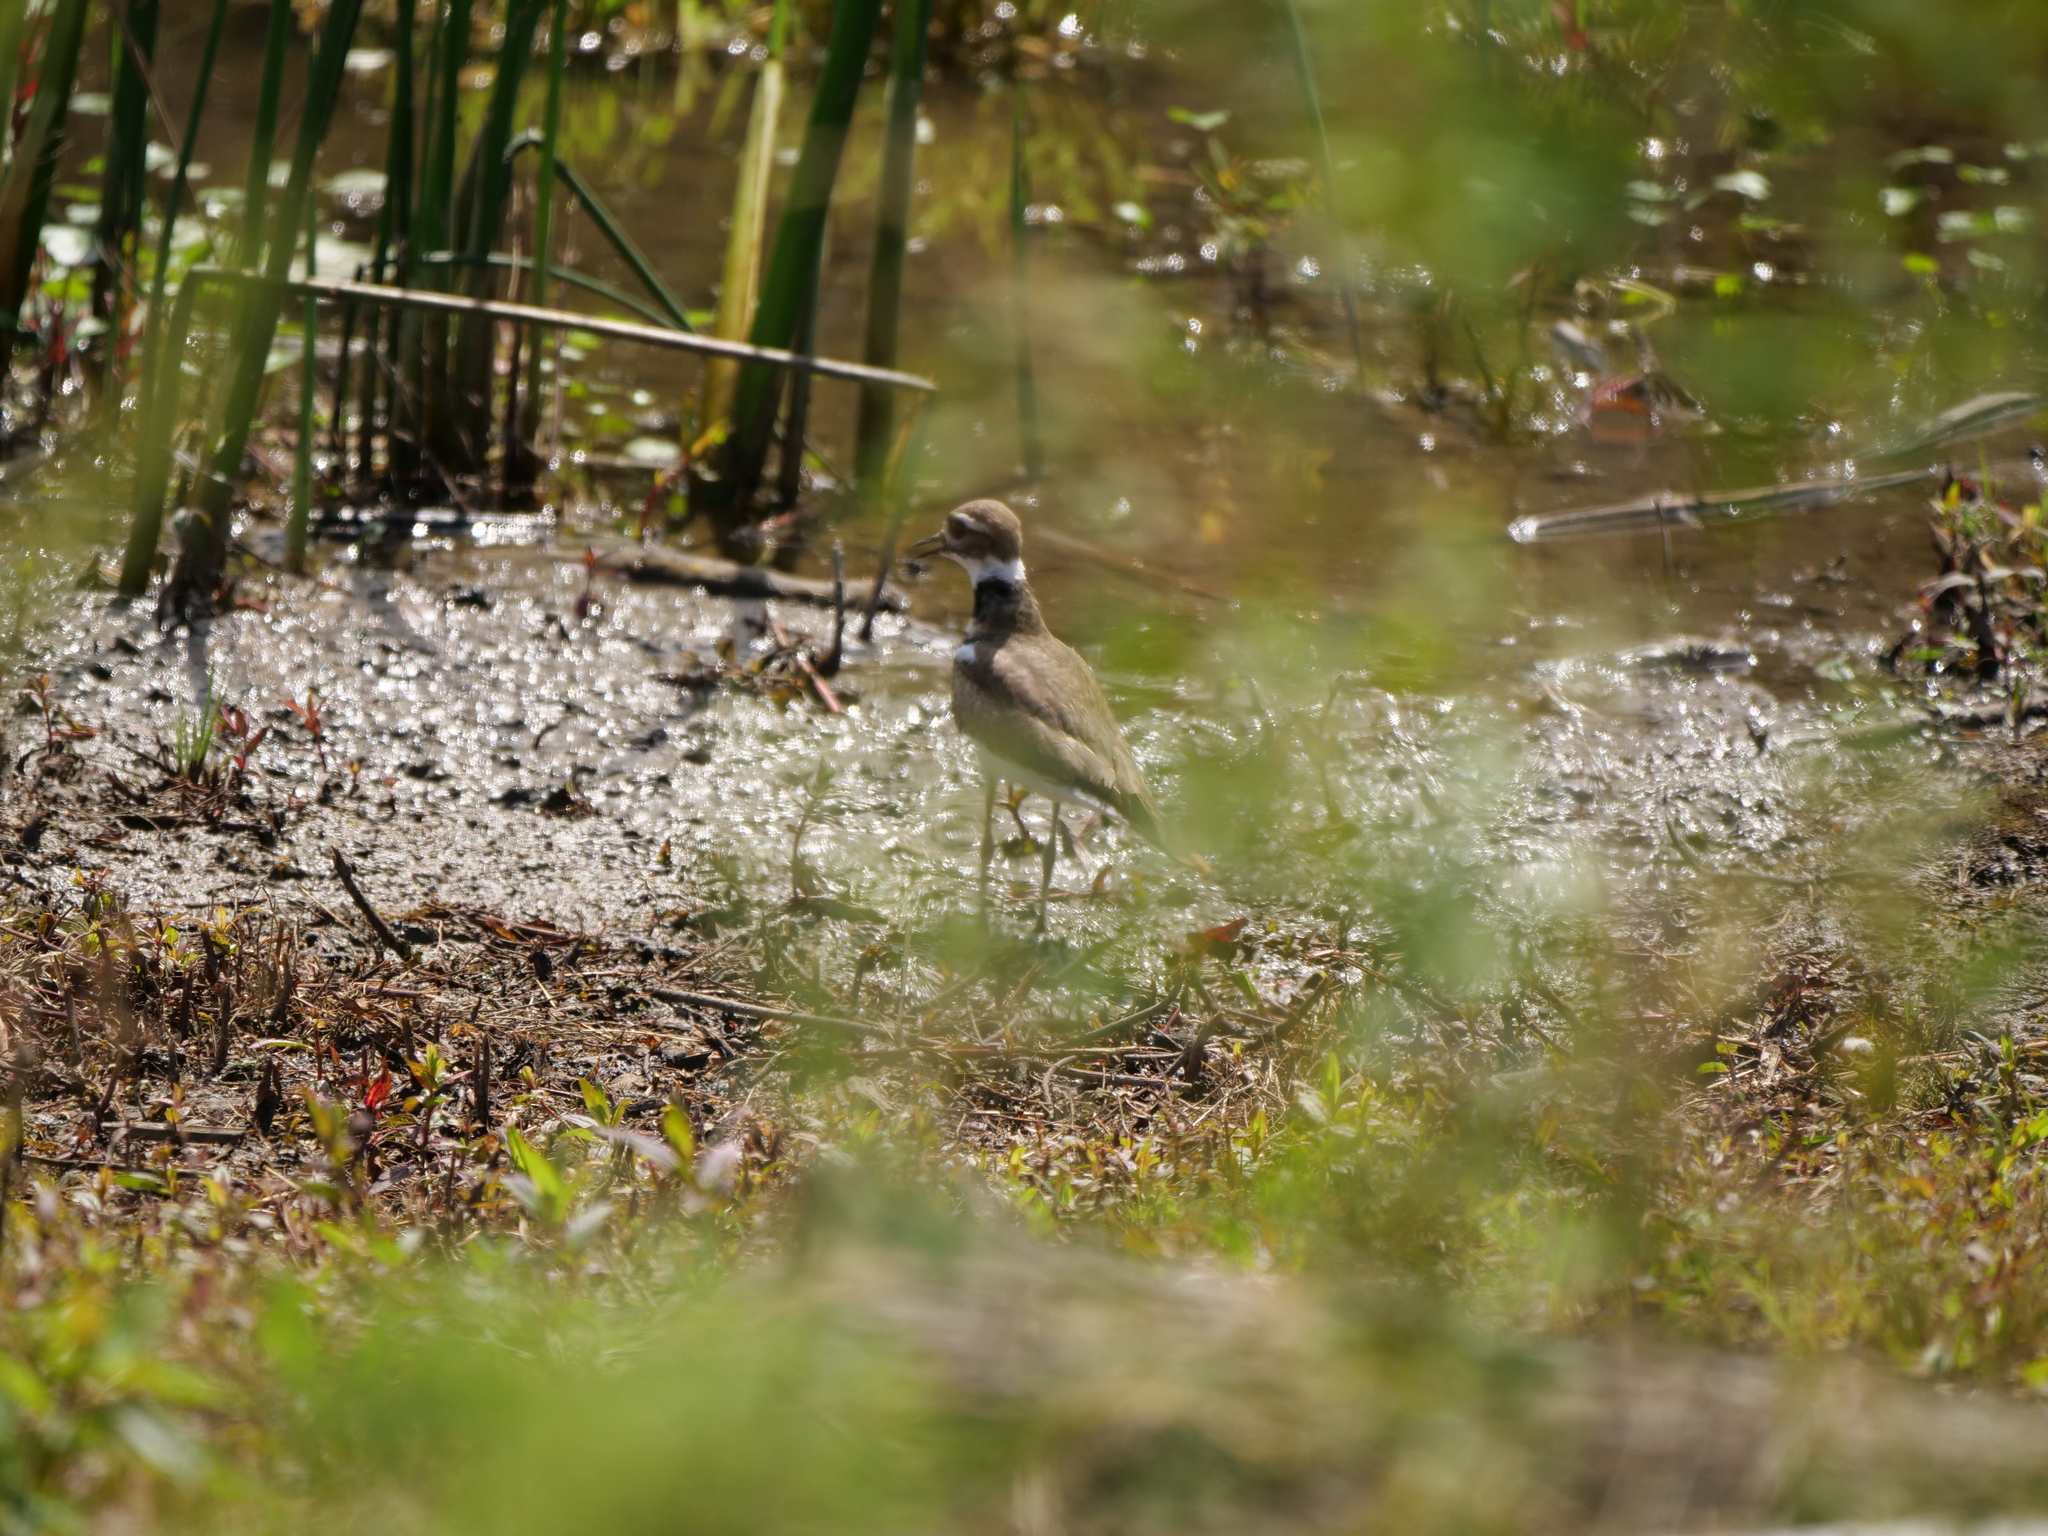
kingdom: Animalia
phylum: Chordata
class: Aves
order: Charadriiformes
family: Charadriidae
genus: Charadrius
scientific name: Charadrius vociferus
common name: Killdeer
